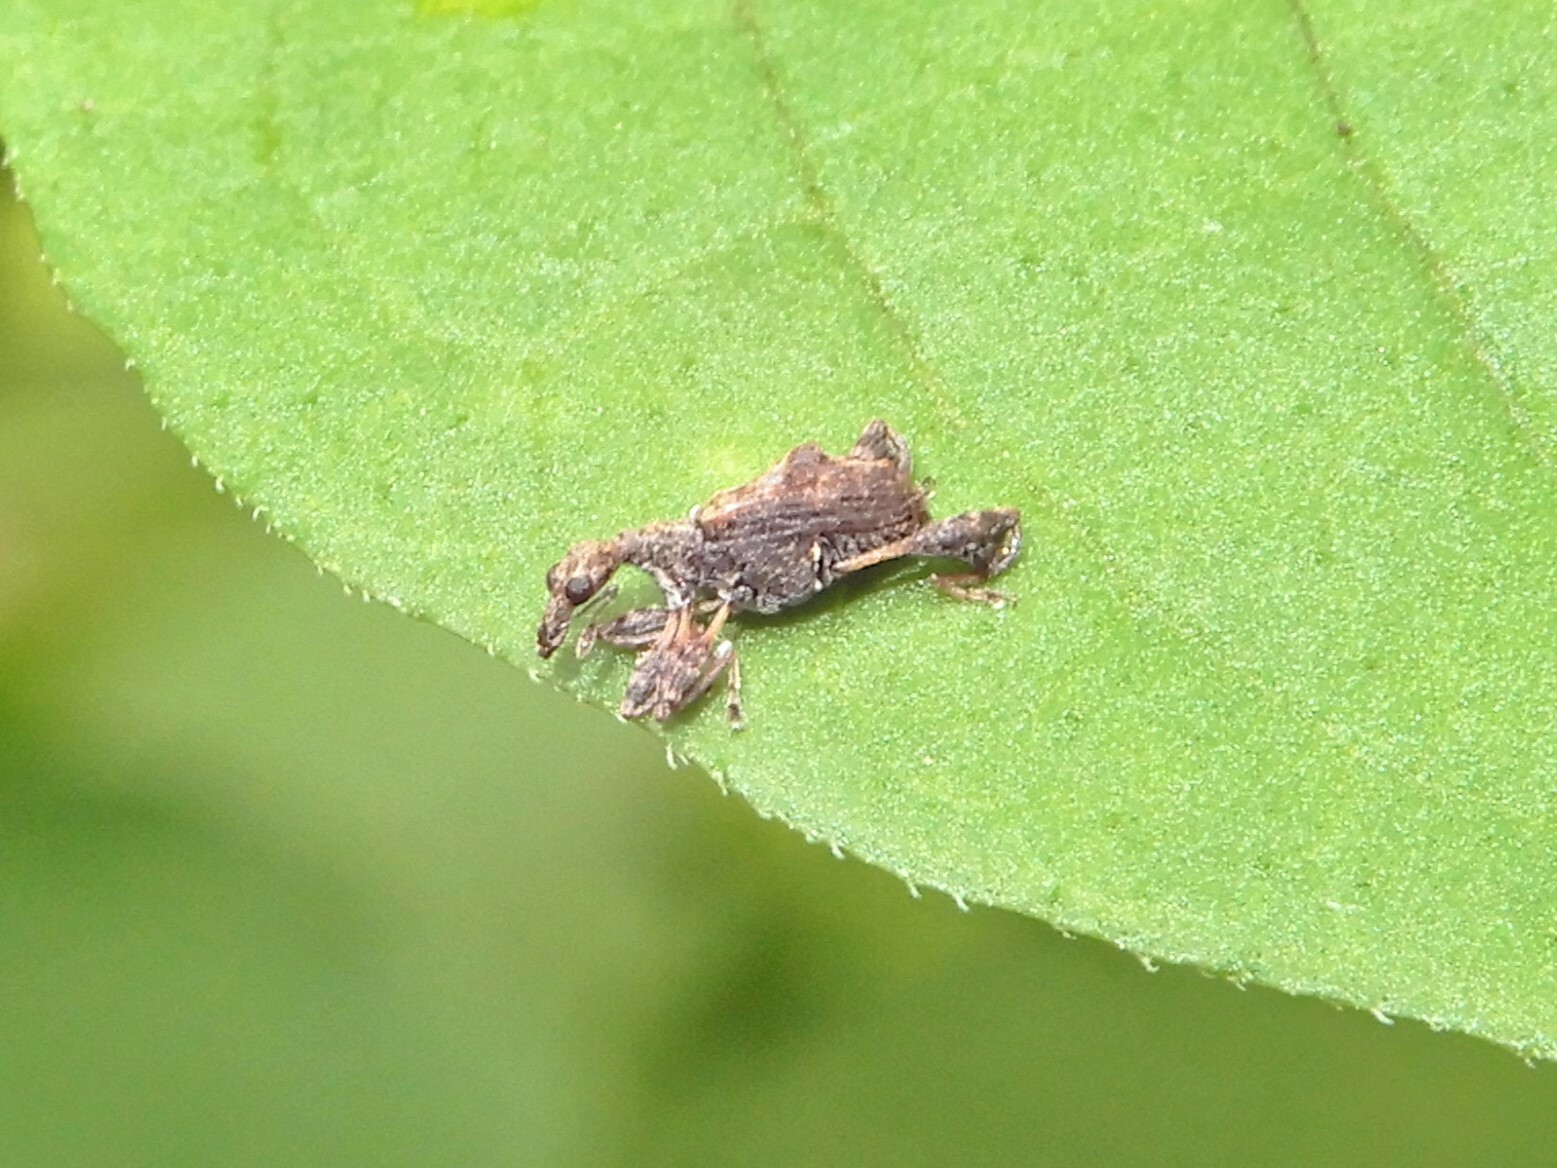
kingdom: Animalia
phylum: Arthropoda
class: Insecta
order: Coleoptera
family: Curculionidae
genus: Stephanorhynchus
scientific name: Stephanorhynchus lawsoni
